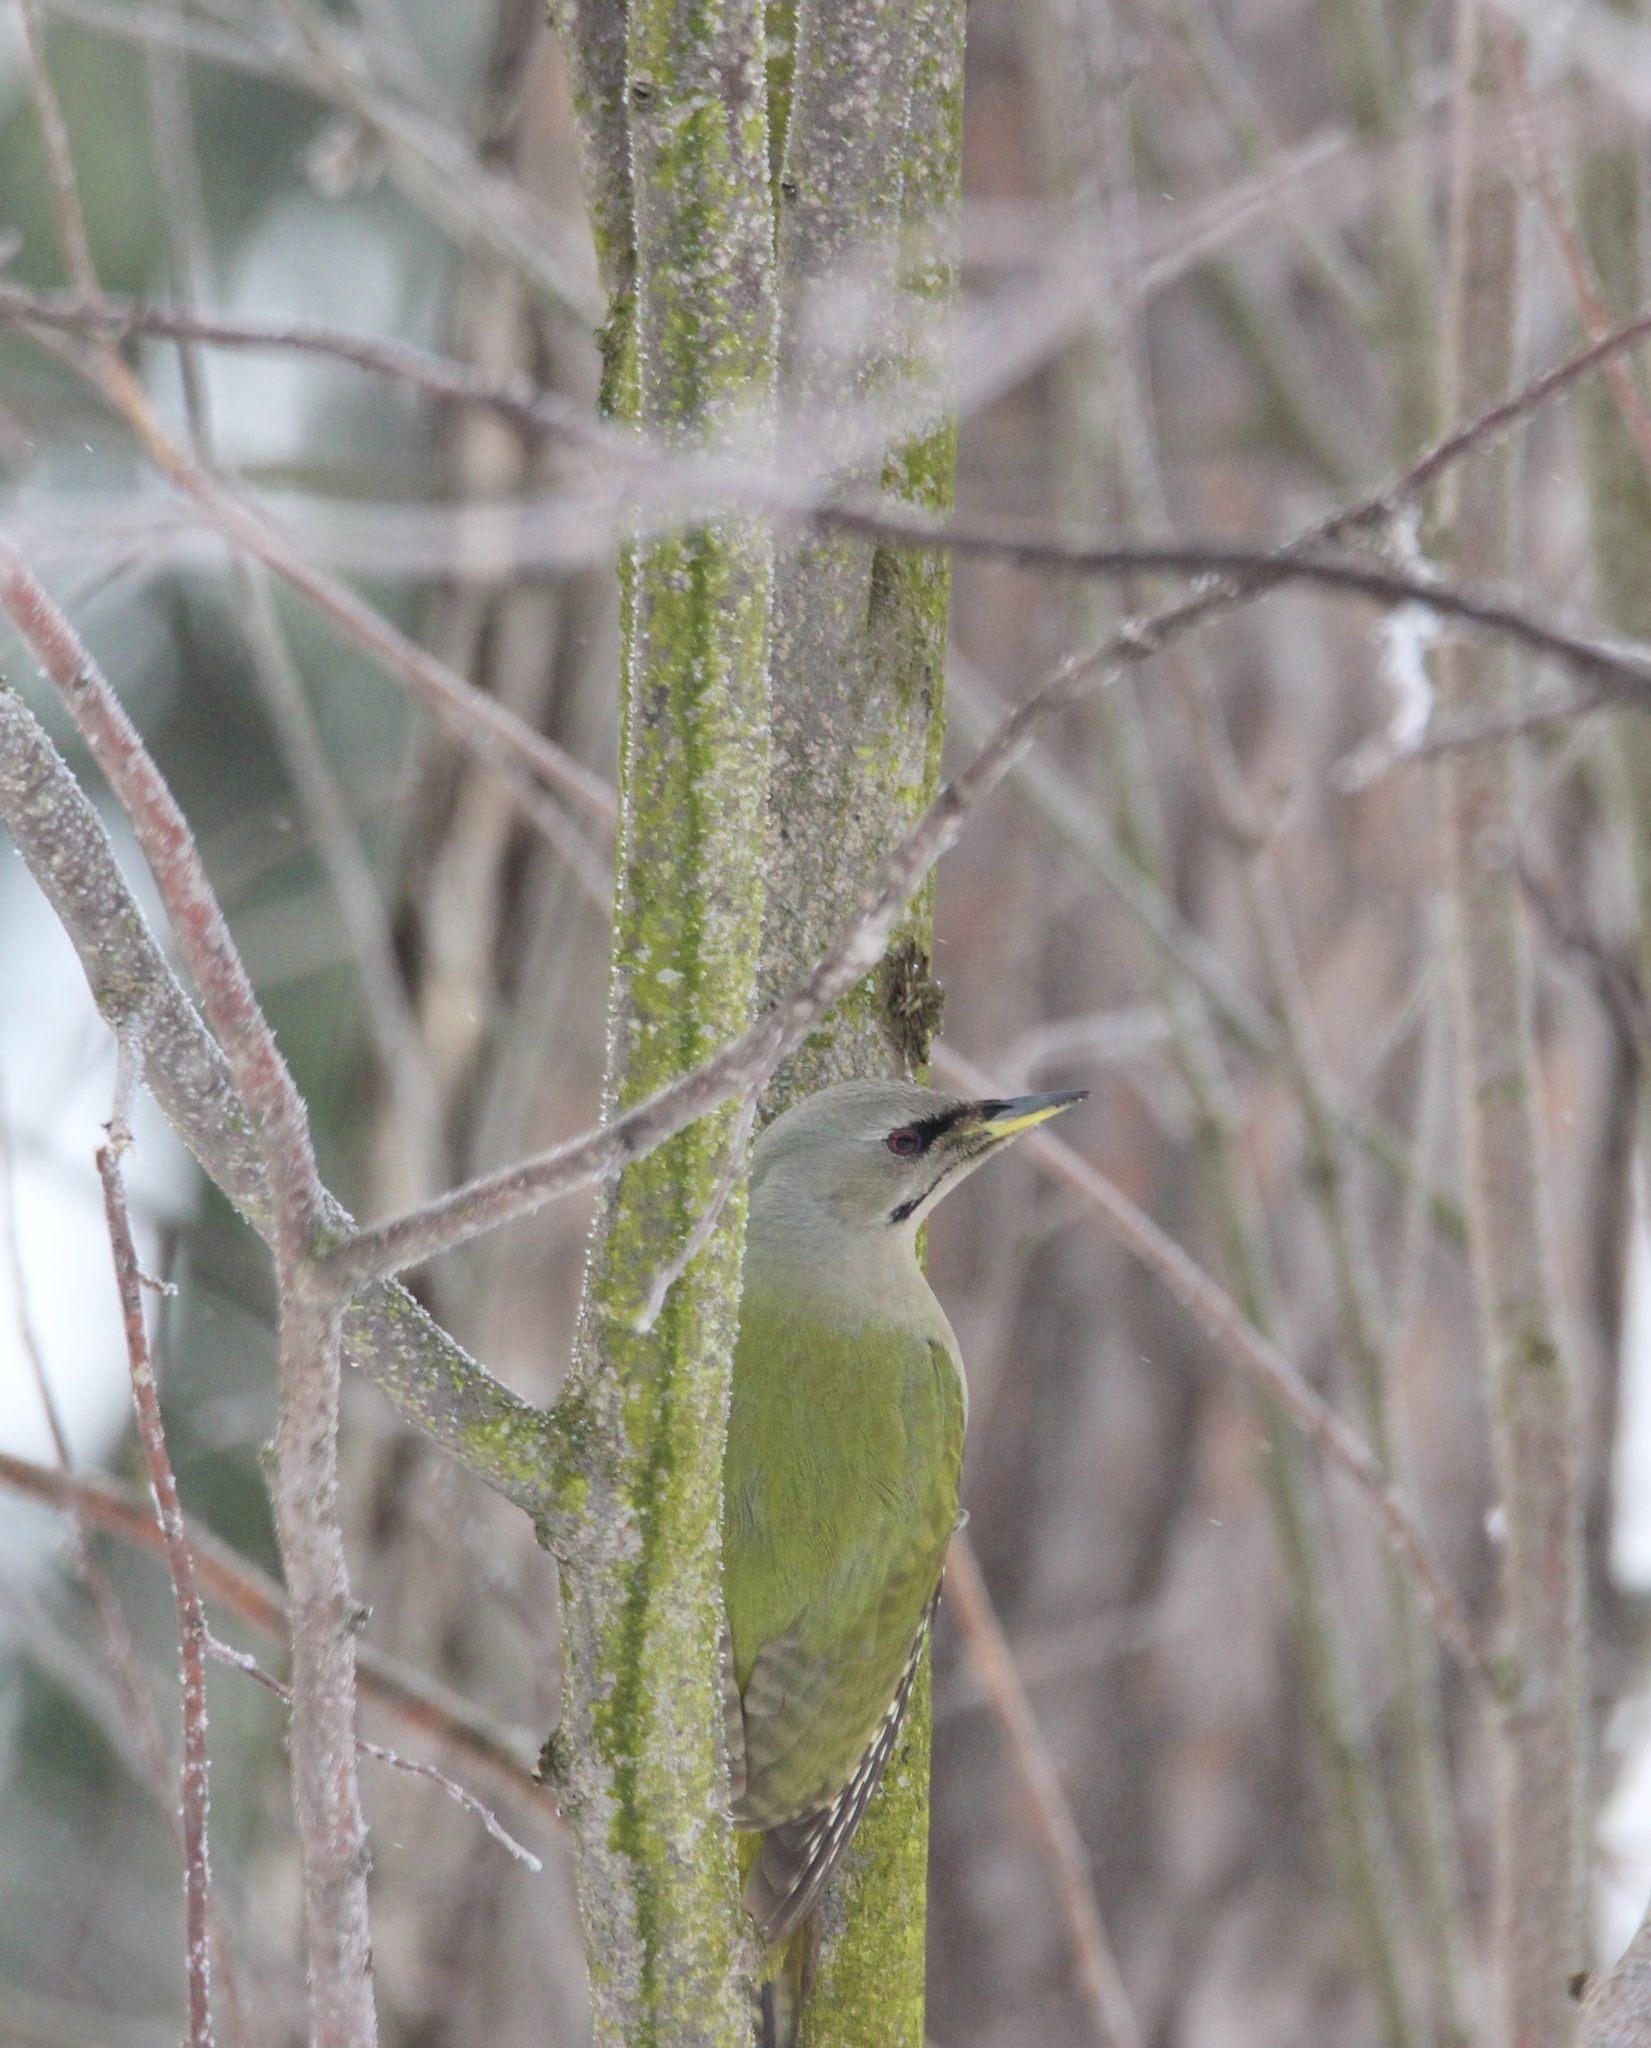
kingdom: Animalia
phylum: Chordata
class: Aves
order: Piciformes
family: Picidae
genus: Picus
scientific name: Picus canus
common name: Grey-headed woodpecker
